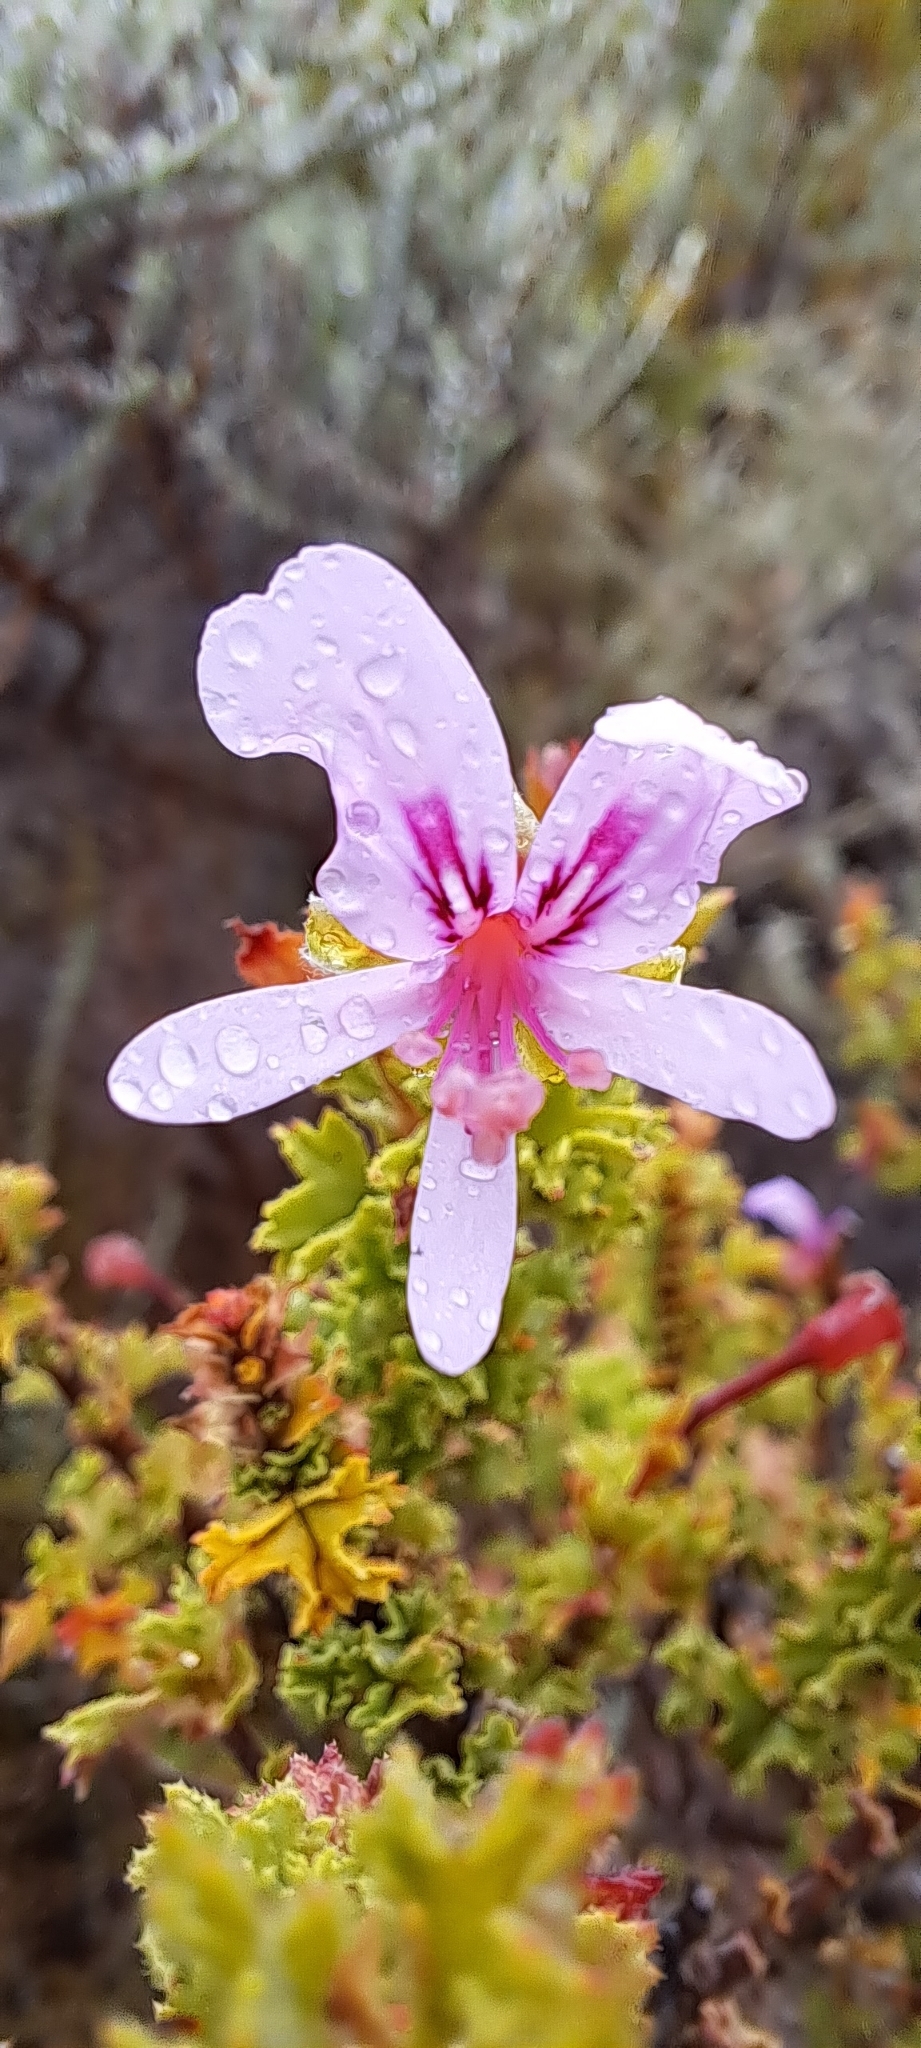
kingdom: Plantae
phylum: Tracheophyta
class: Magnoliopsida
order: Geraniales
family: Geraniaceae
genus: Pelargonium
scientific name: Pelargonium crispum
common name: Crisped-leaf pelargonium
